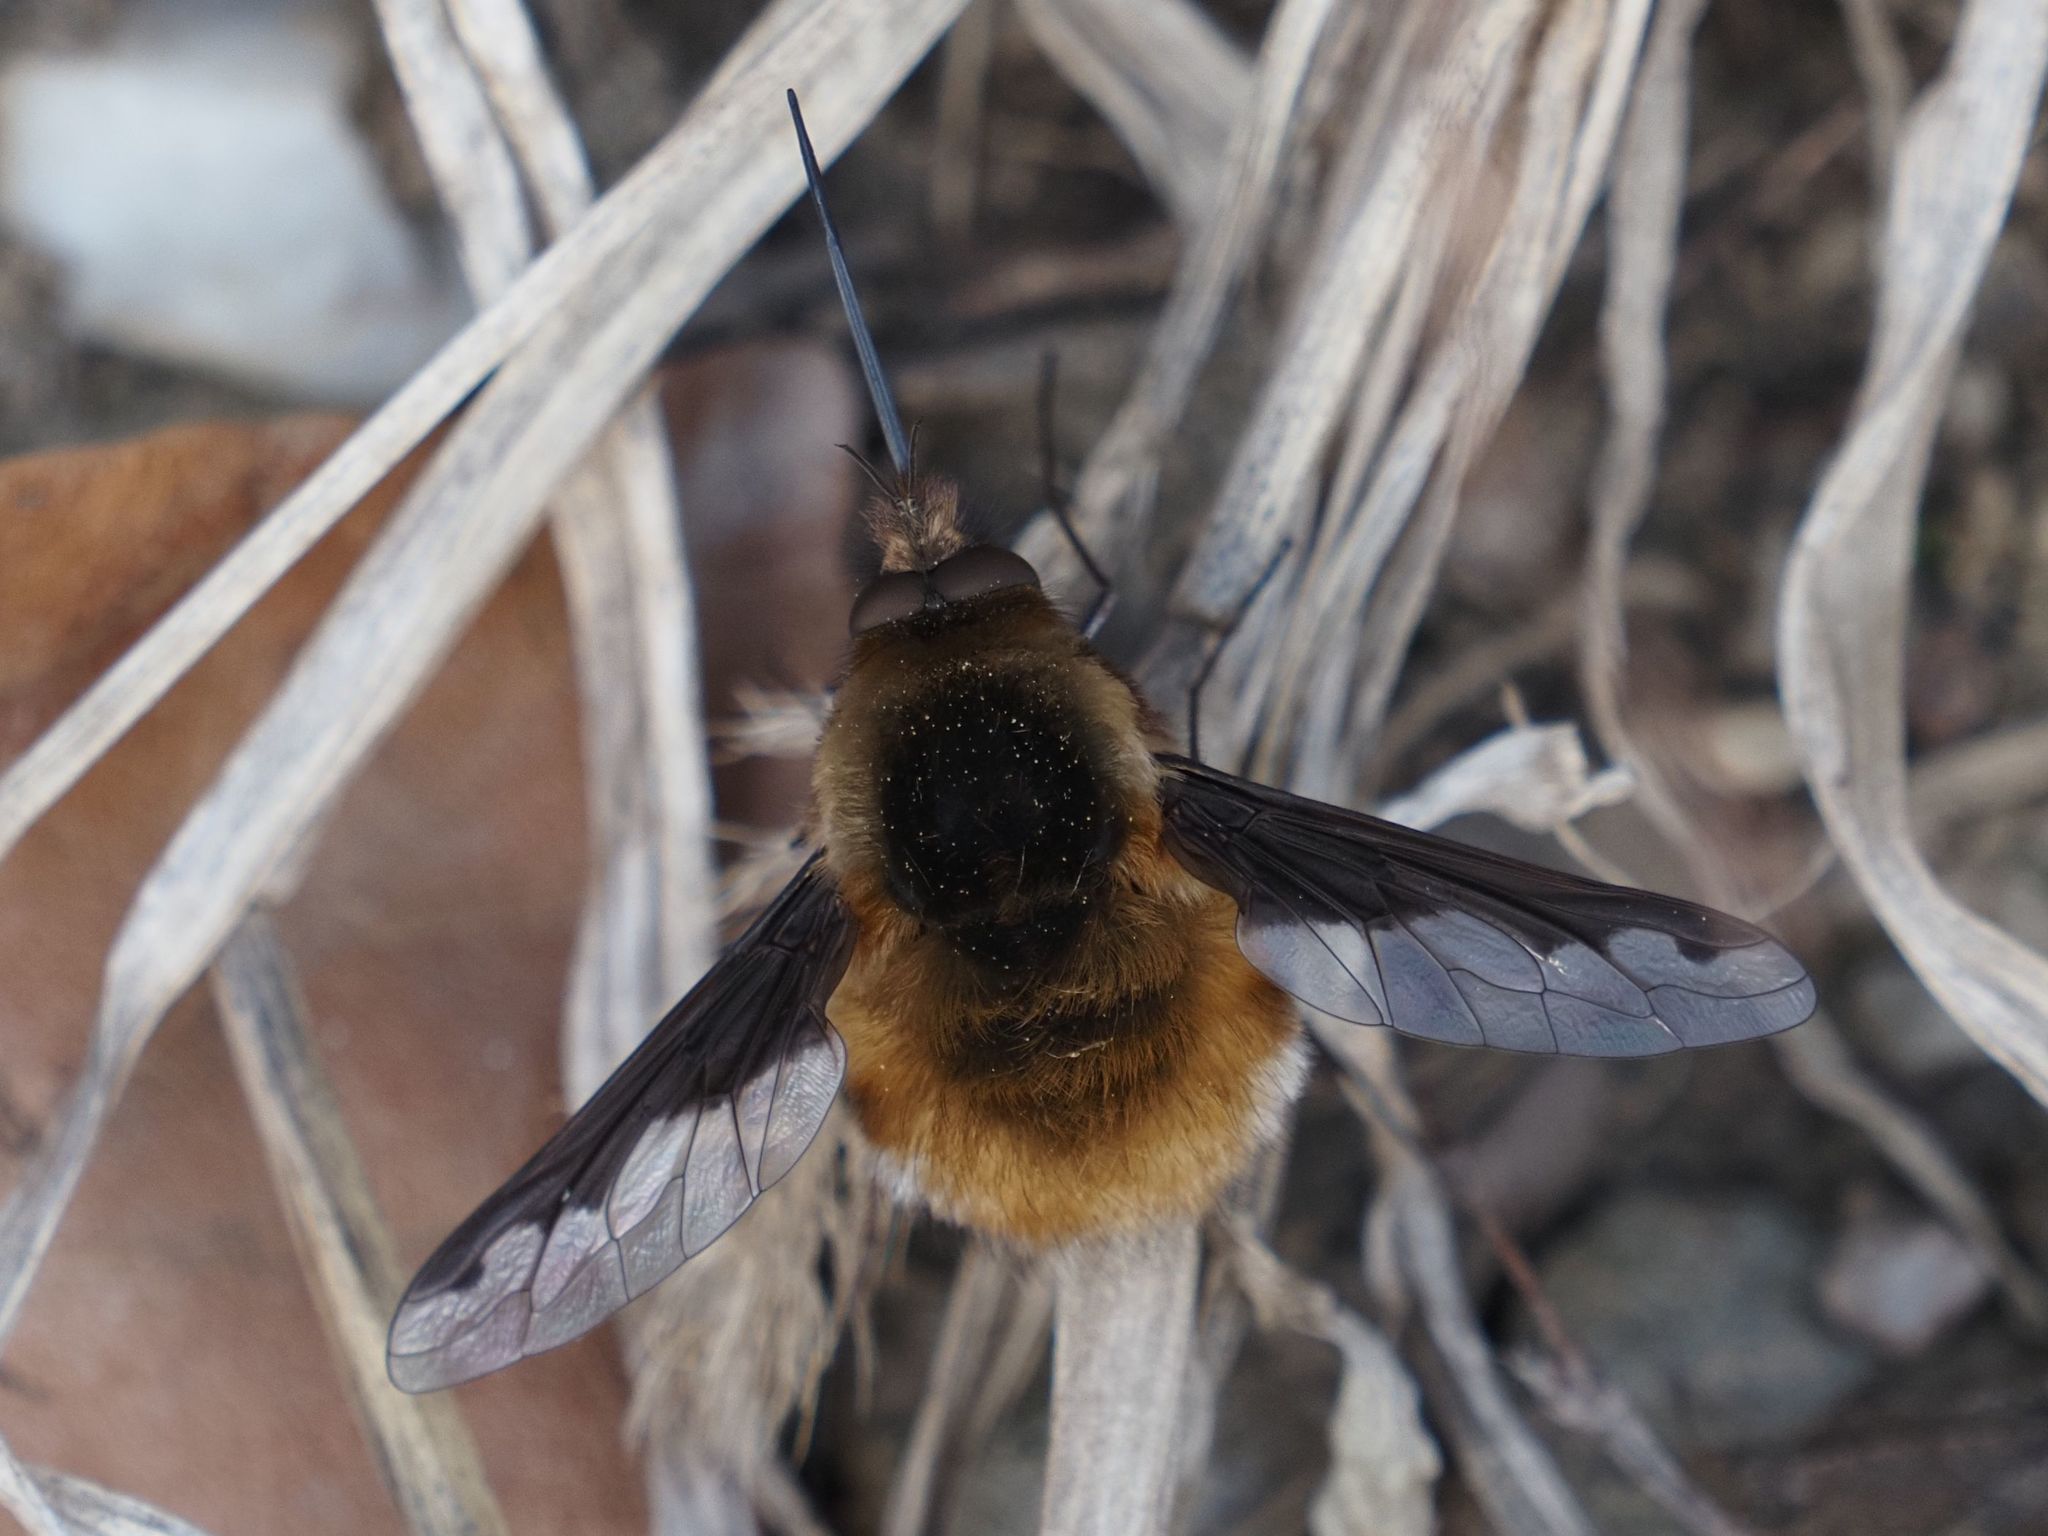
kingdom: Animalia
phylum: Arthropoda
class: Insecta
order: Diptera
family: Bombyliidae
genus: Bombylius
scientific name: Bombylius major
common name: Bee fly
